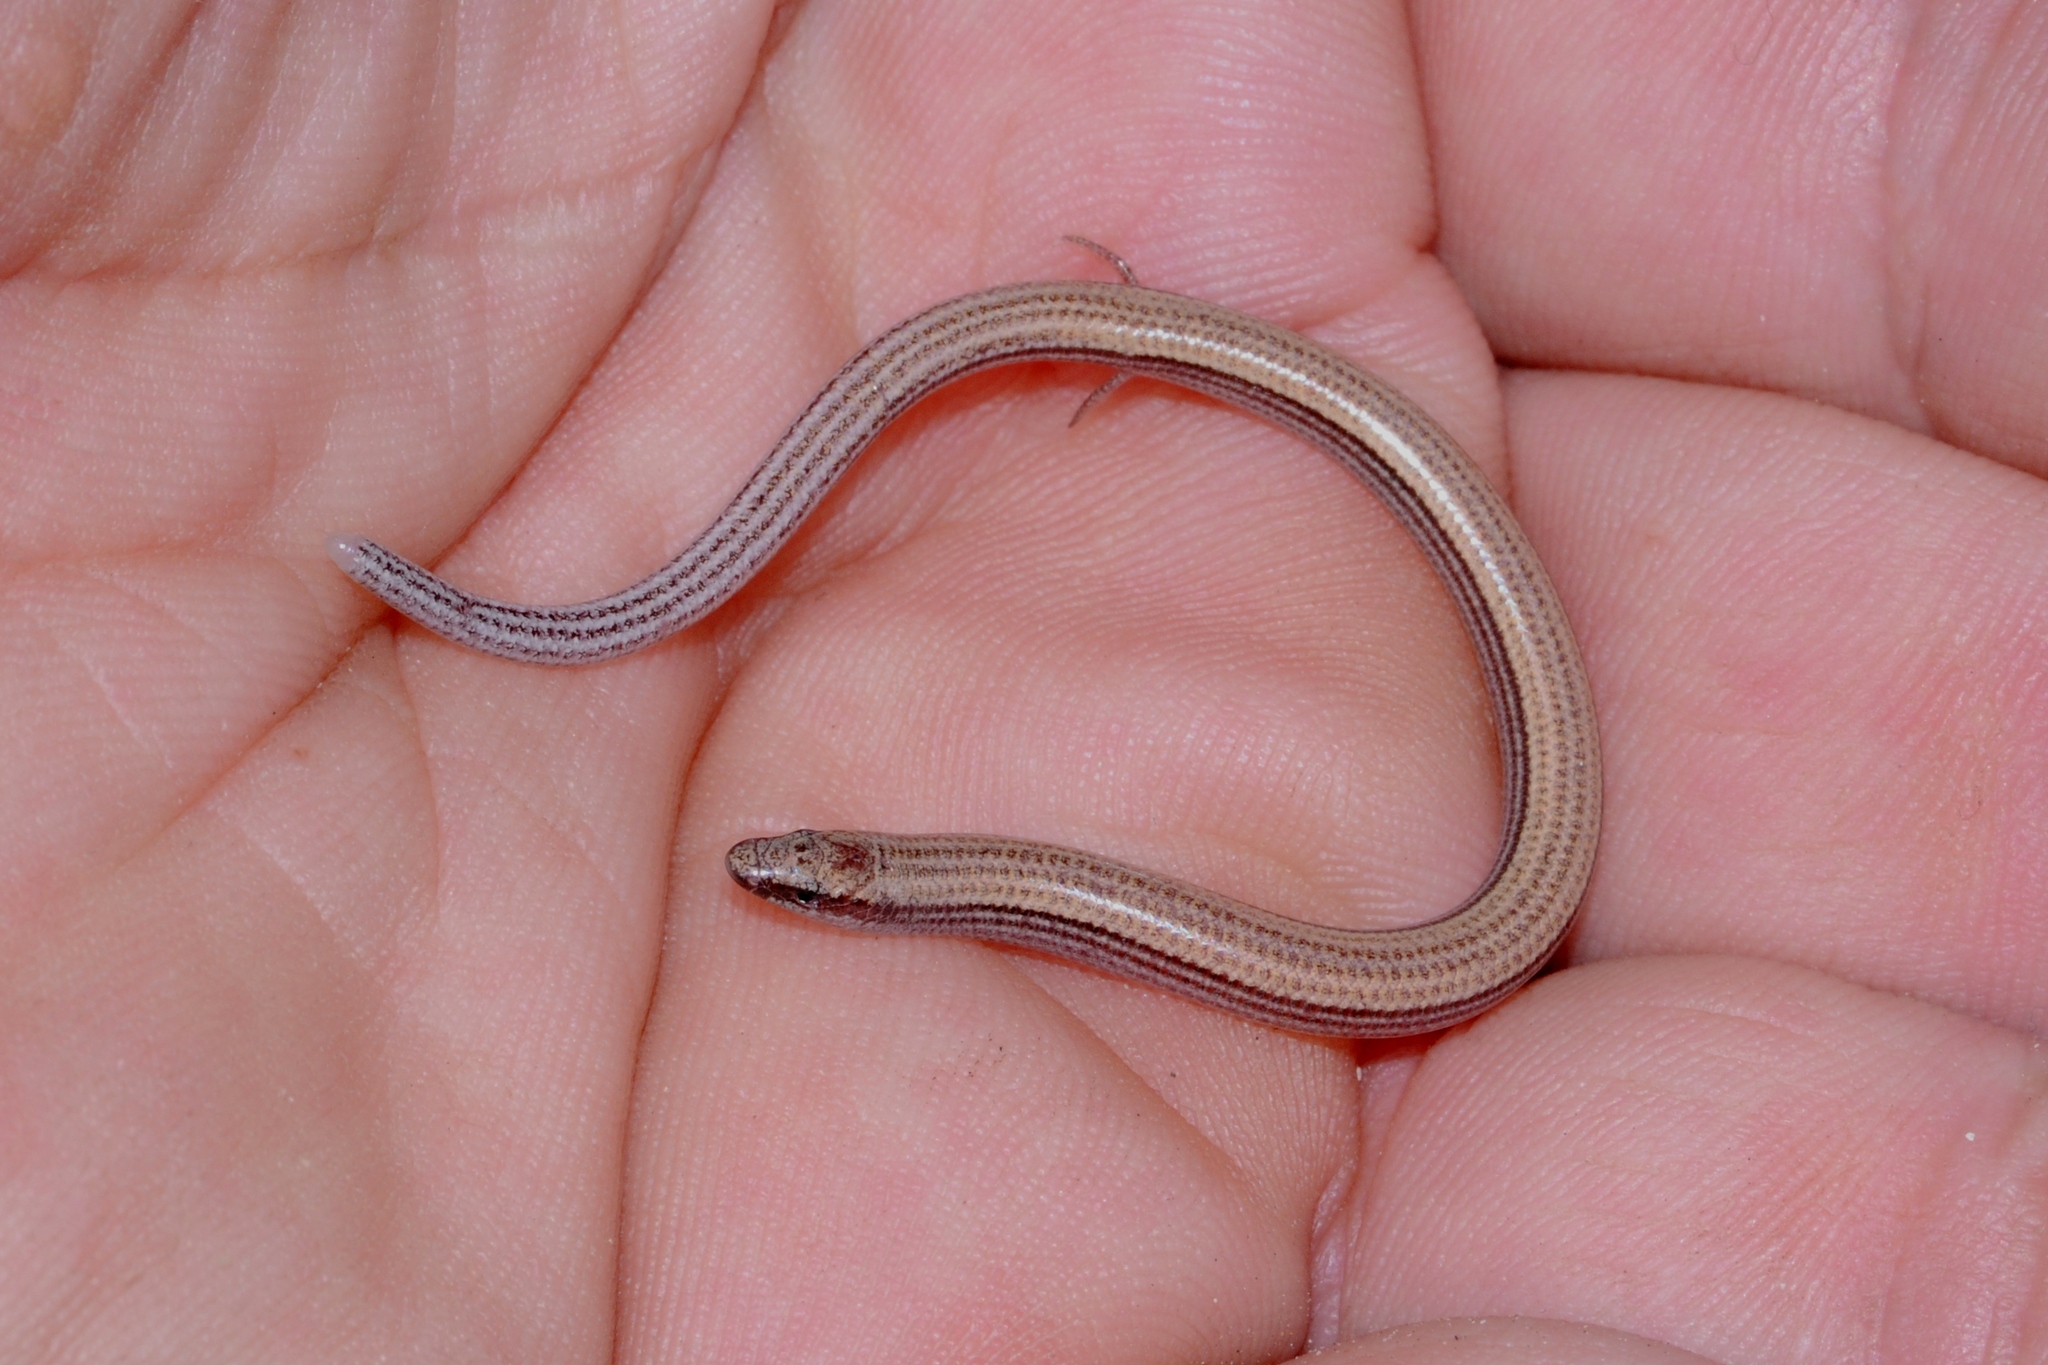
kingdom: Animalia
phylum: Chordata
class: Squamata
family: Scincidae
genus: Scelotes
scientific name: Scelotes bipes
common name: Common burrowing skink
